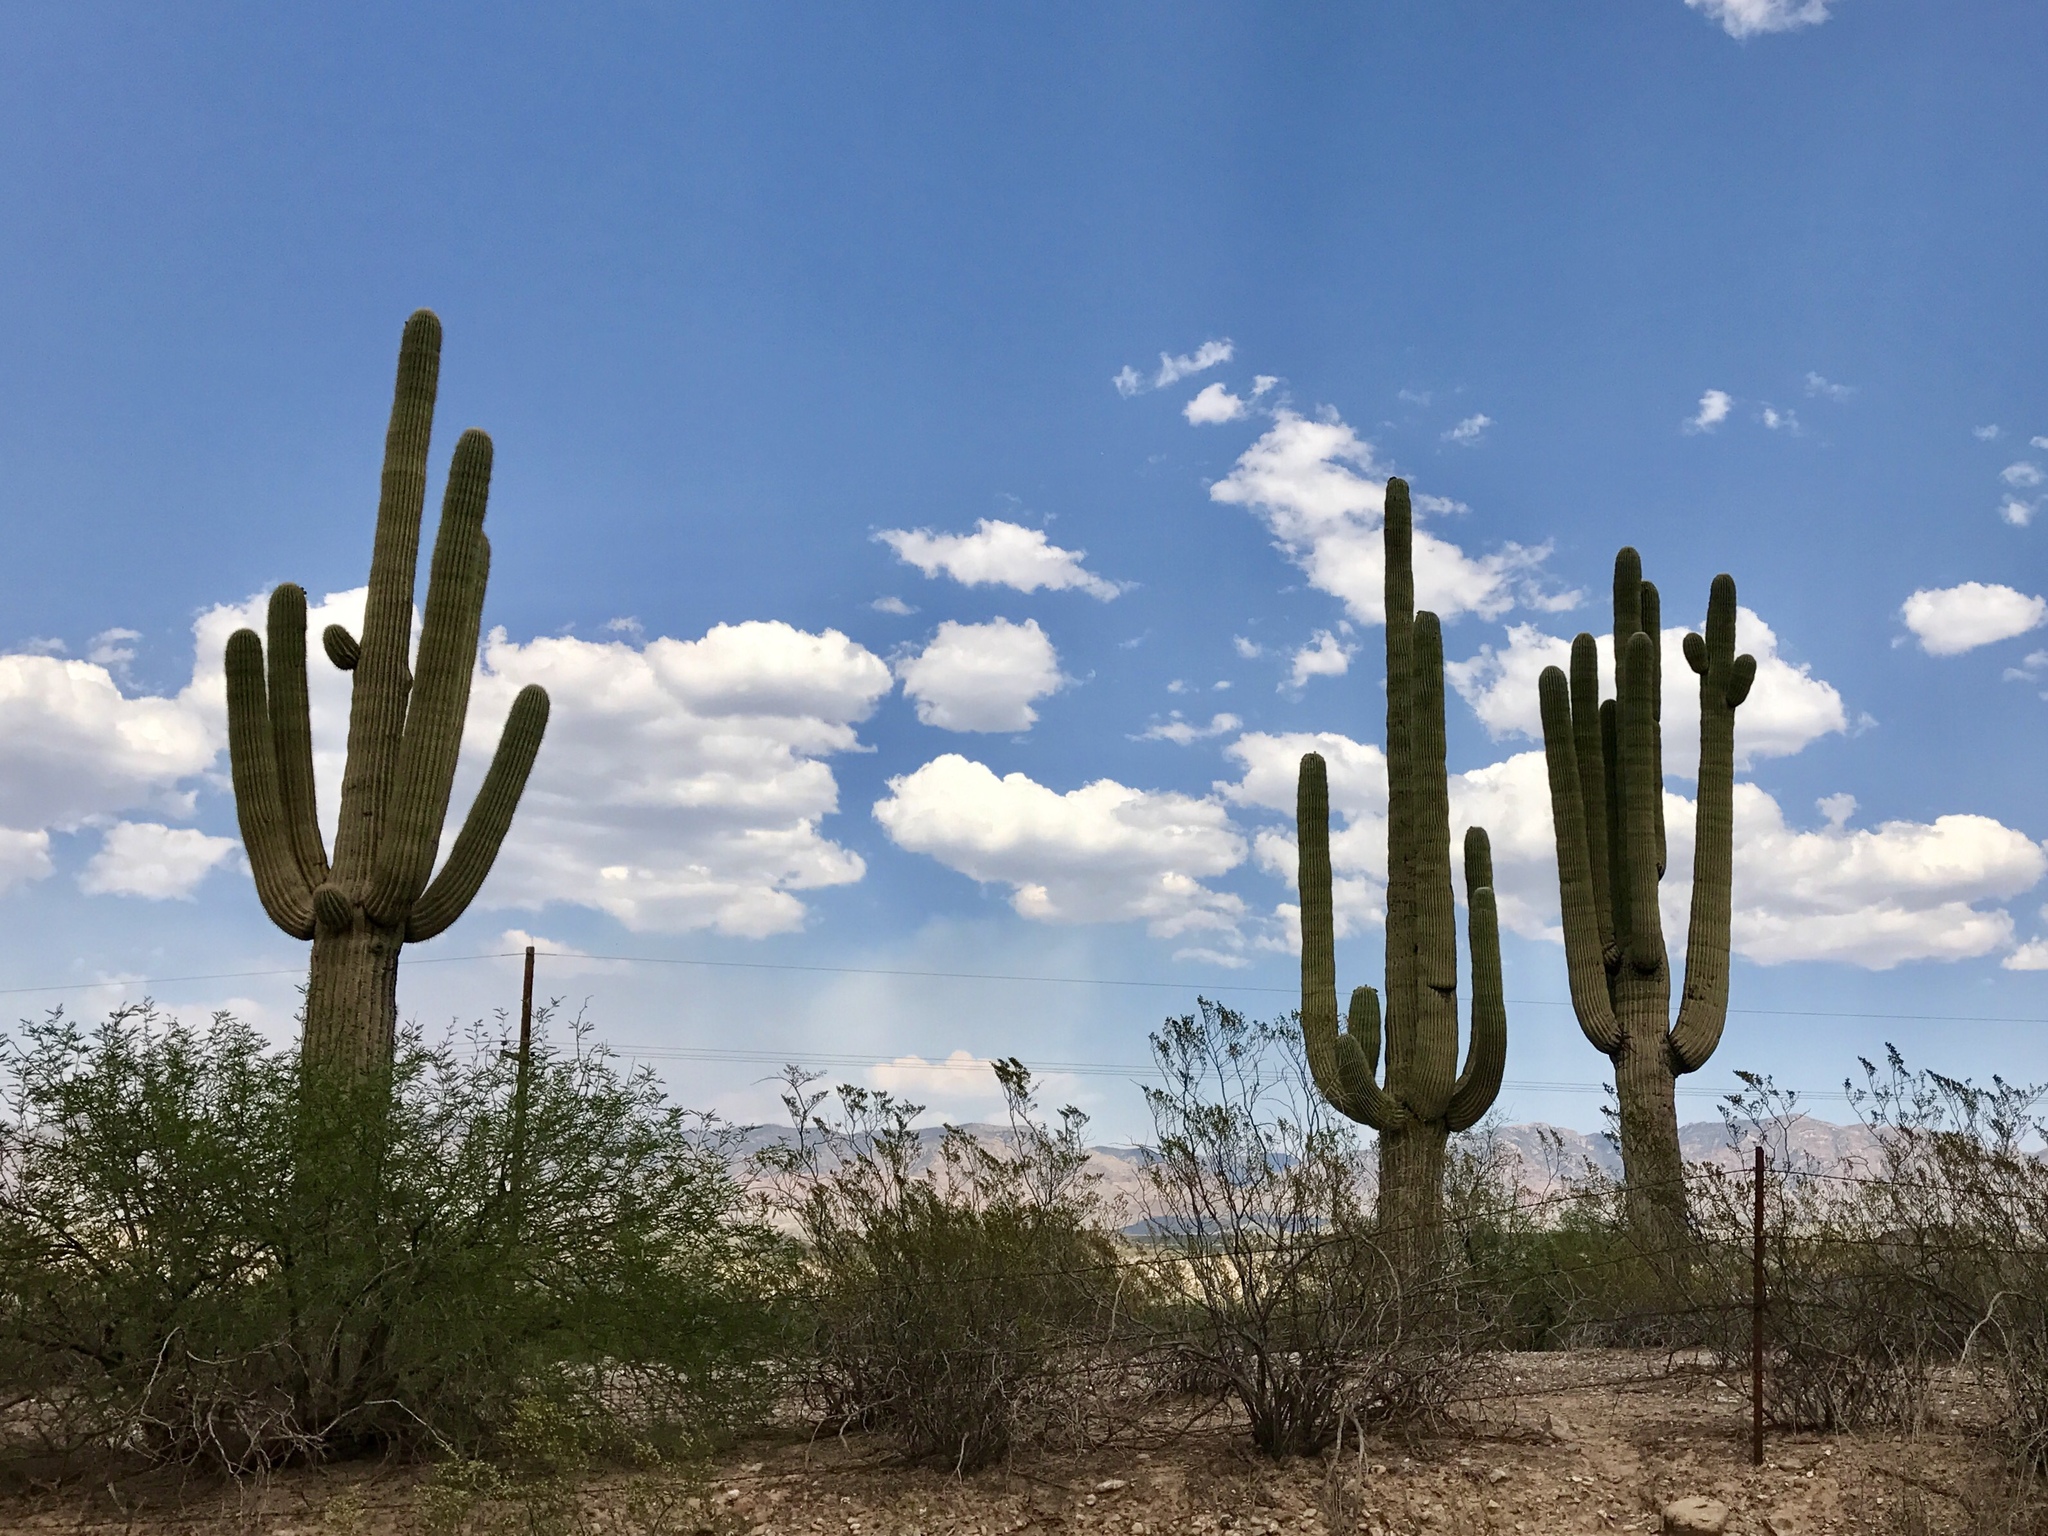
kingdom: Plantae
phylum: Tracheophyta
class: Magnoliopsida
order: Caryophyllales
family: Cactaceae
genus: Carnegiea
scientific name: Carnegiea gigantea
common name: Saguaro
